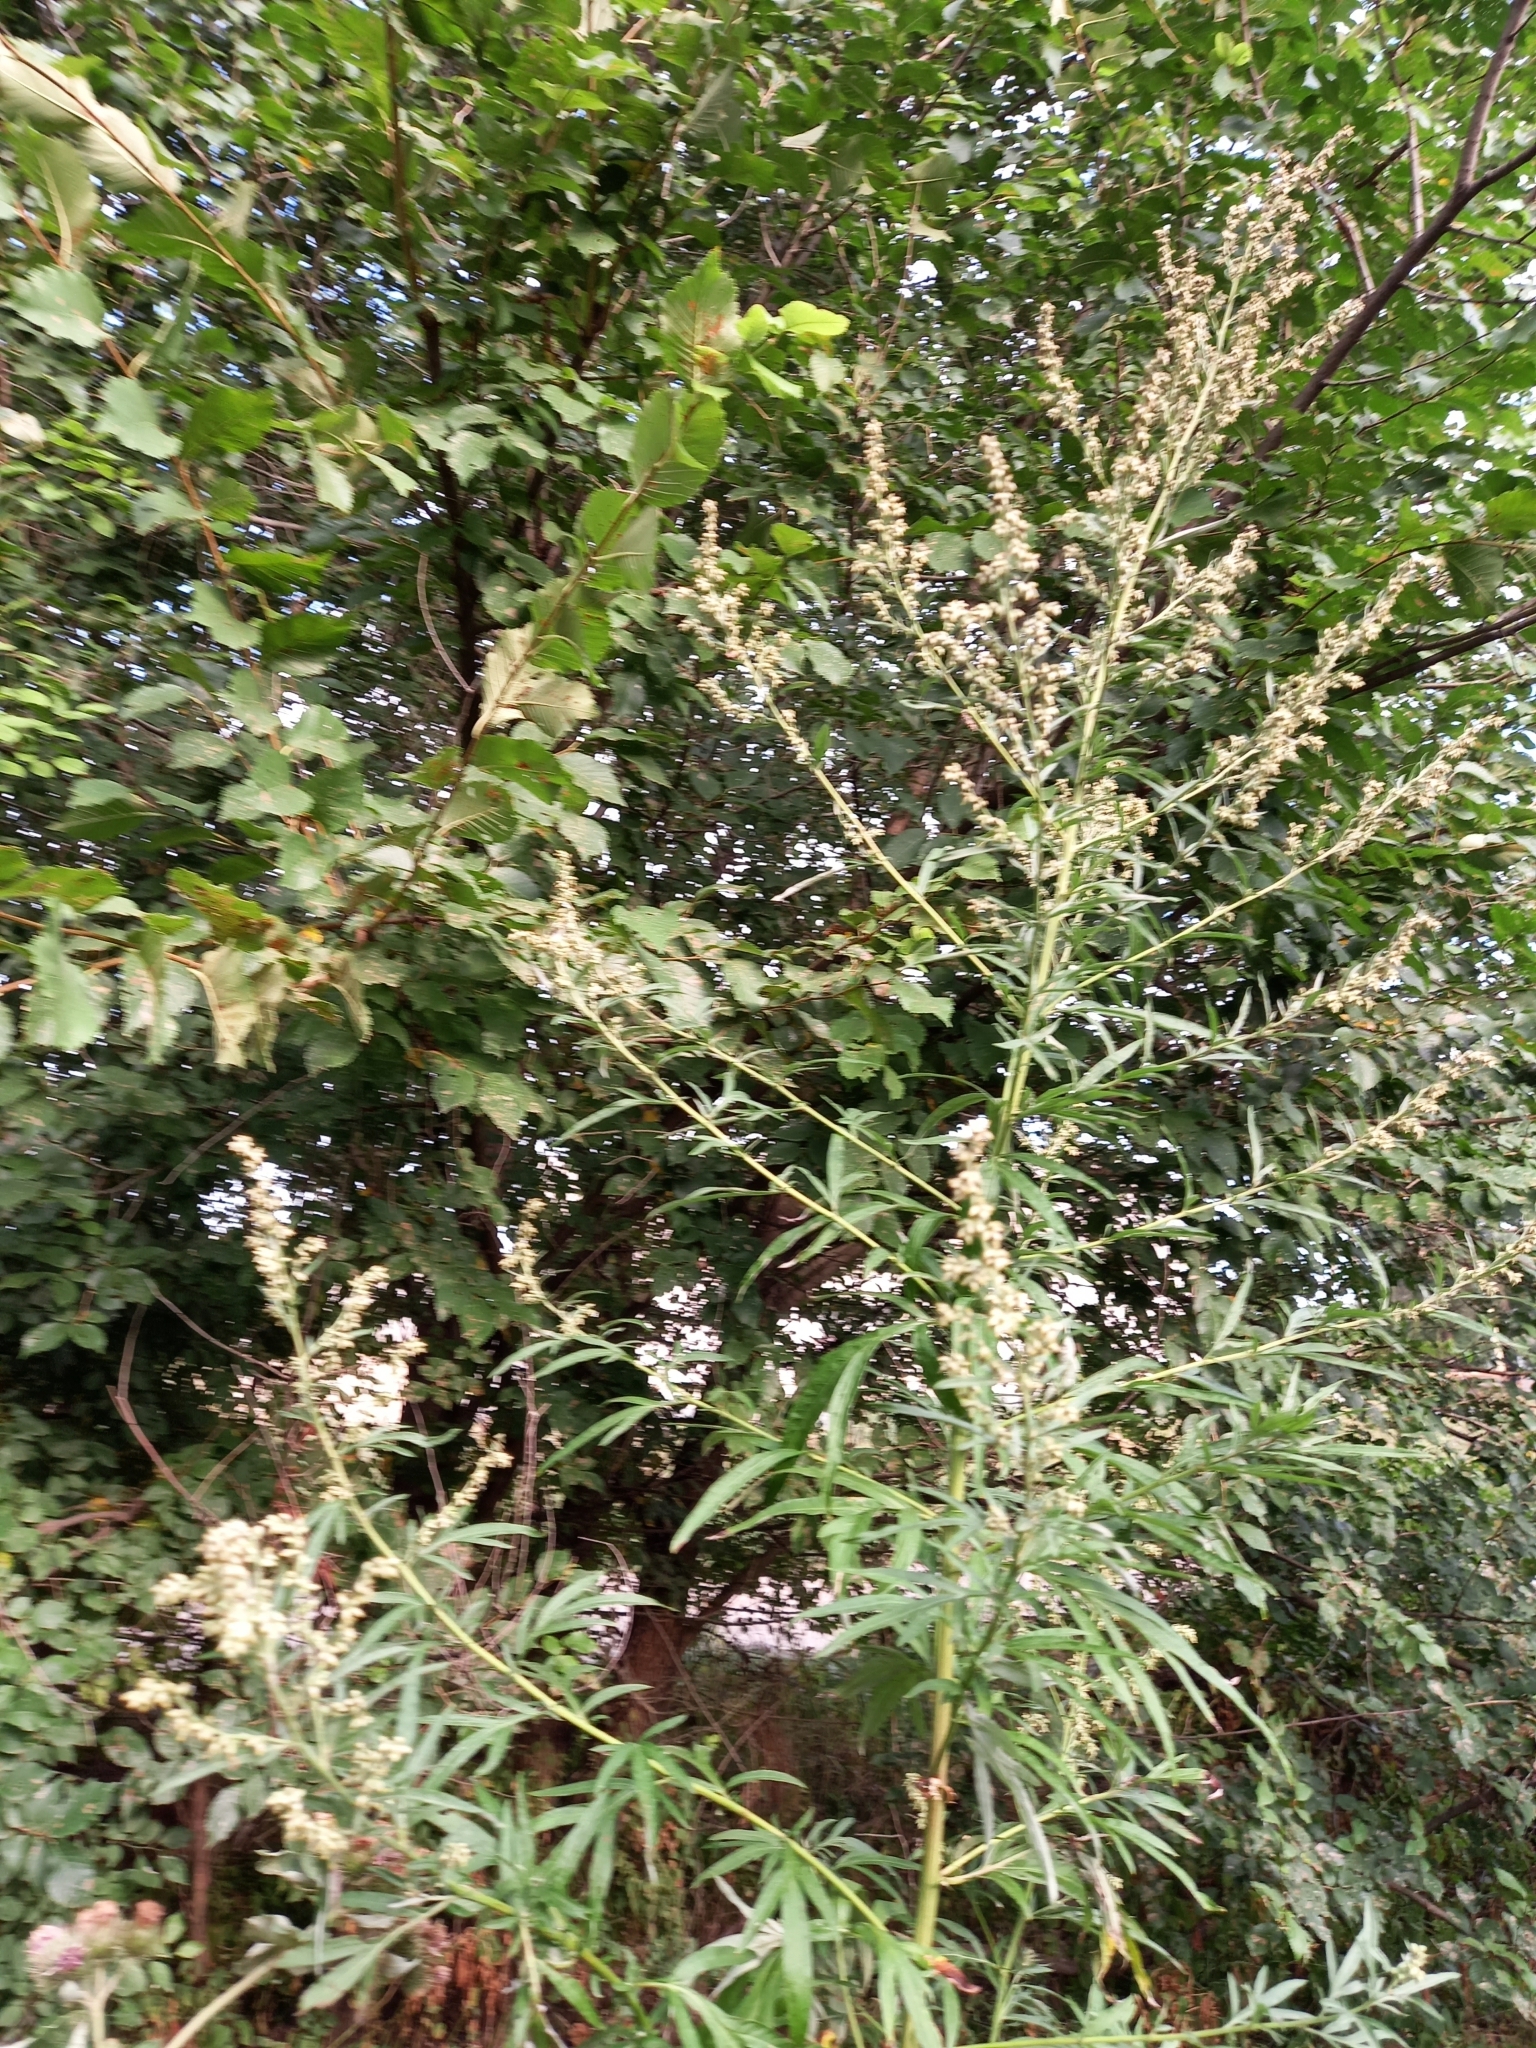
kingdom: Plantae
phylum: Tracheophyta
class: Magnoliopsida
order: Asterales
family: Asteraceae
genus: Artemisia
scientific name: Artemisia vulgaris
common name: Mugwort
